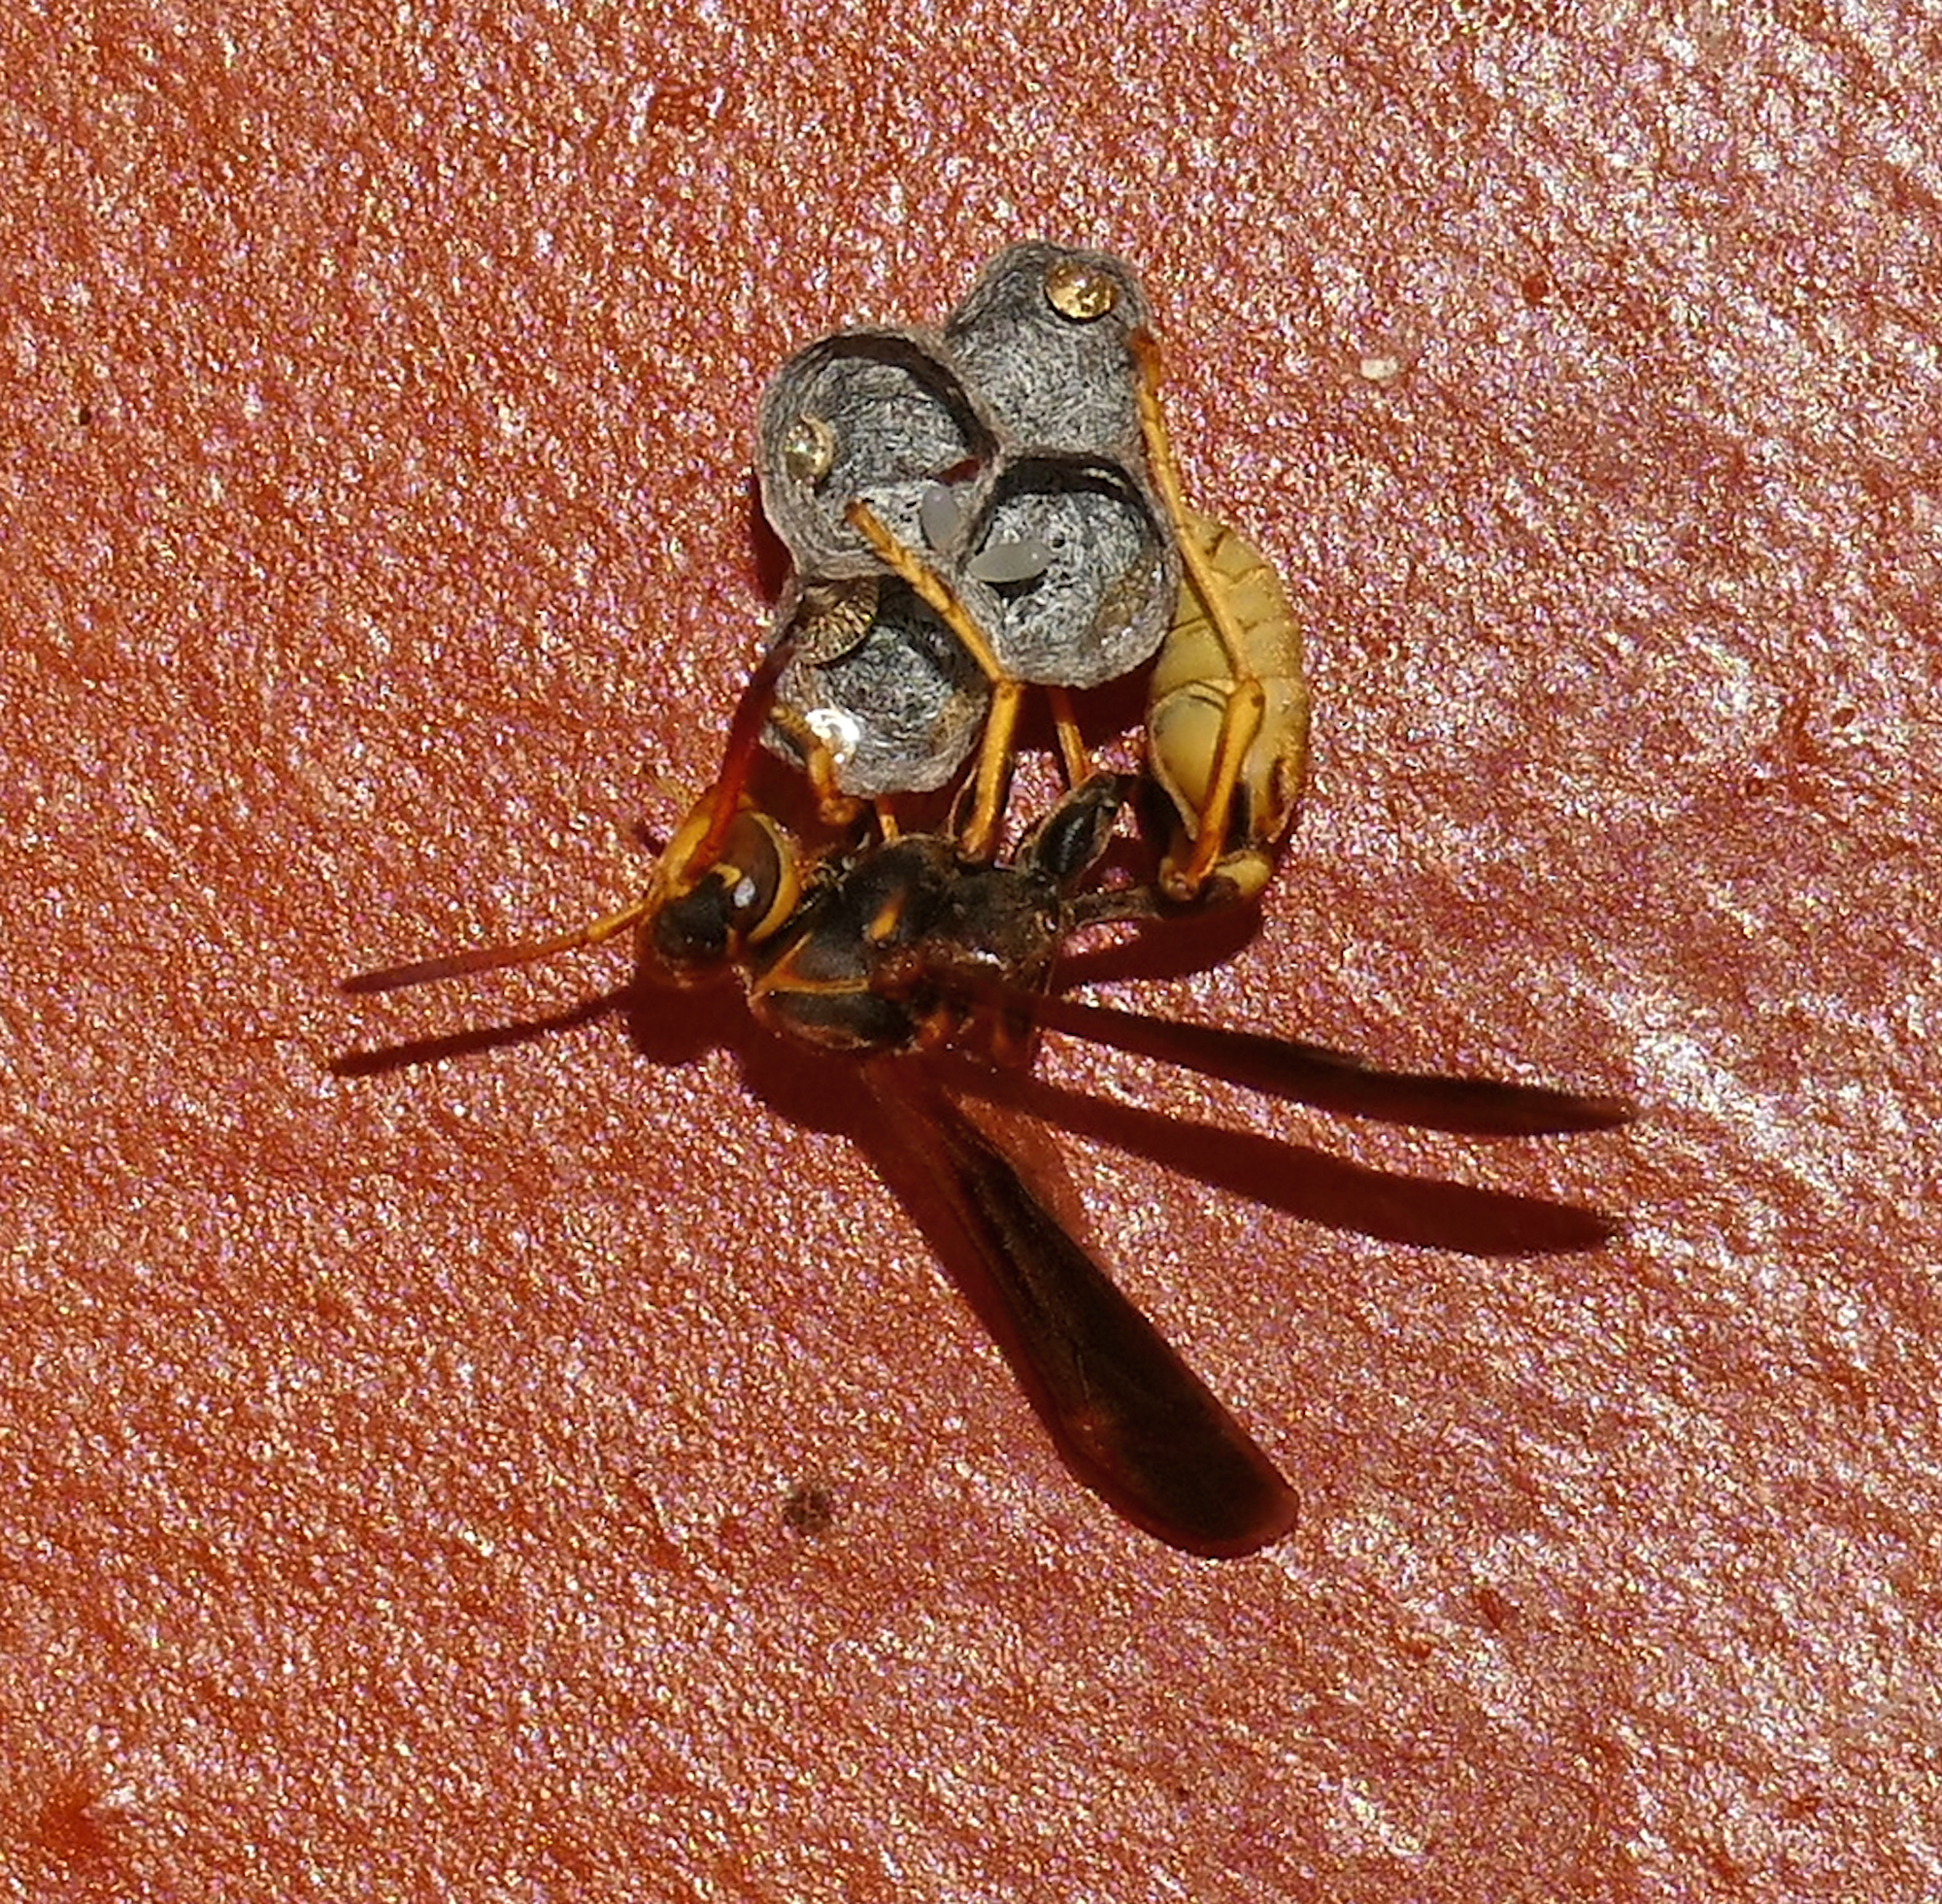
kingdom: Animalia
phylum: Arthropoda
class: Insecta
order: Hymenoptera
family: Vespidae
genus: Mischocyttarus
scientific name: Mischocyttarus navajo
